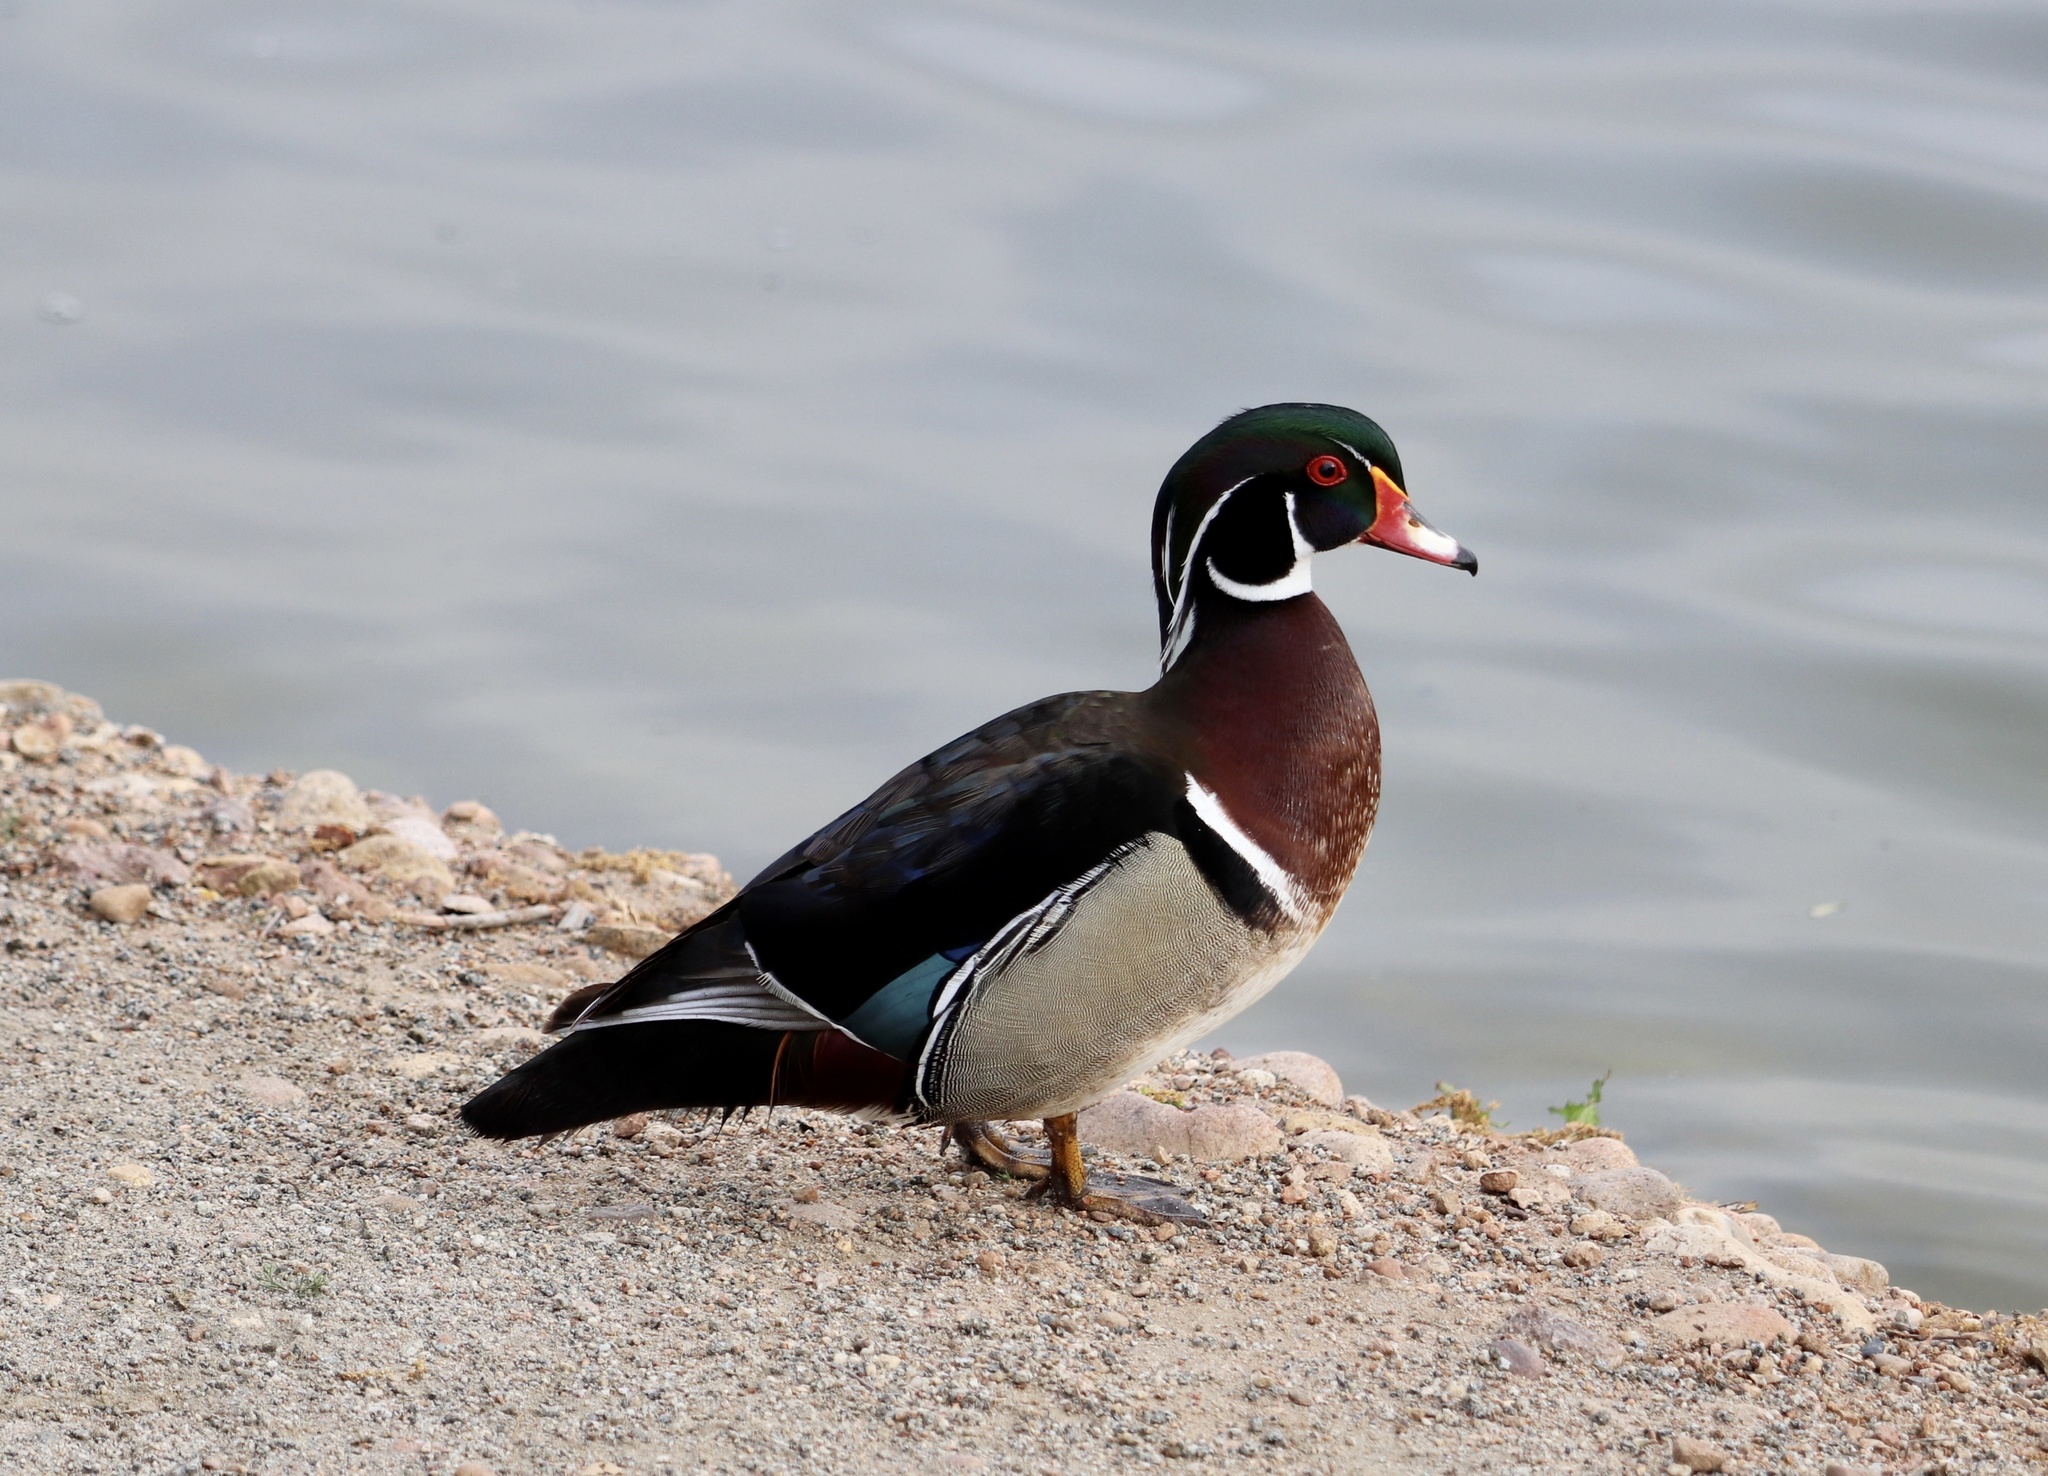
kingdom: Animalia
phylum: Chordata
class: Aves
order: Anseriformes
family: Anatidae
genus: Aix
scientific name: Aix sponsa
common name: Wood duck
